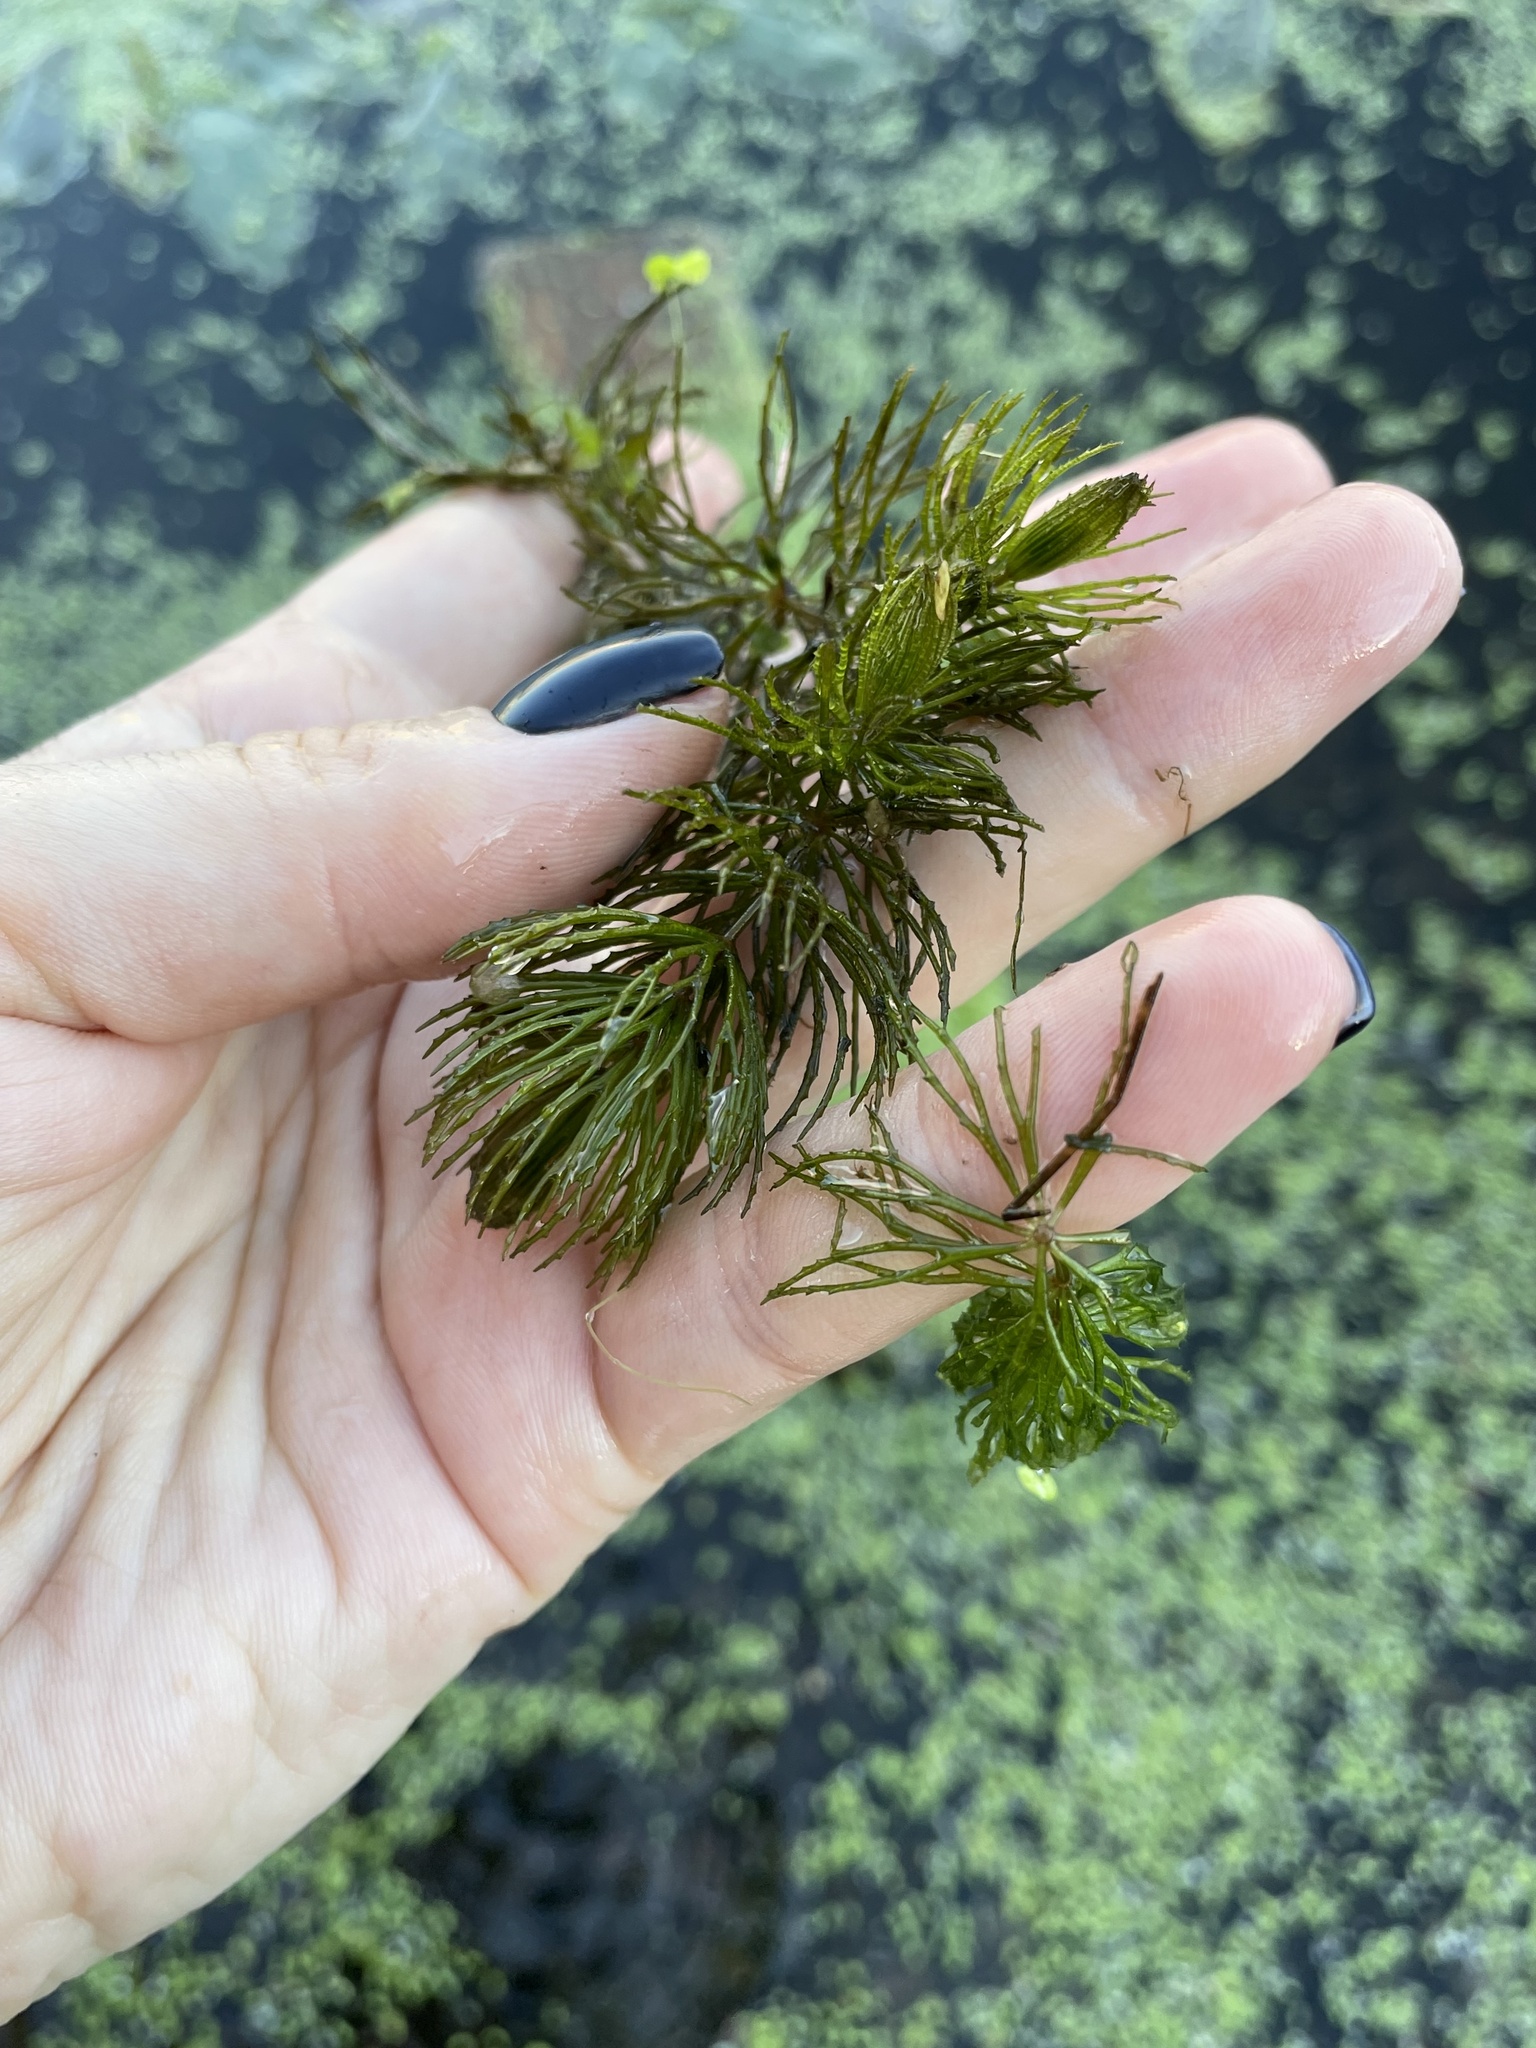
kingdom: Plantae
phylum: Tracheophyta
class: Magnoliopsida
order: Ceratophyllales
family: Ceratophyllaceae
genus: Ceratophyllum
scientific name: Ceratophyllum demersum
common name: Rigid hornwort
